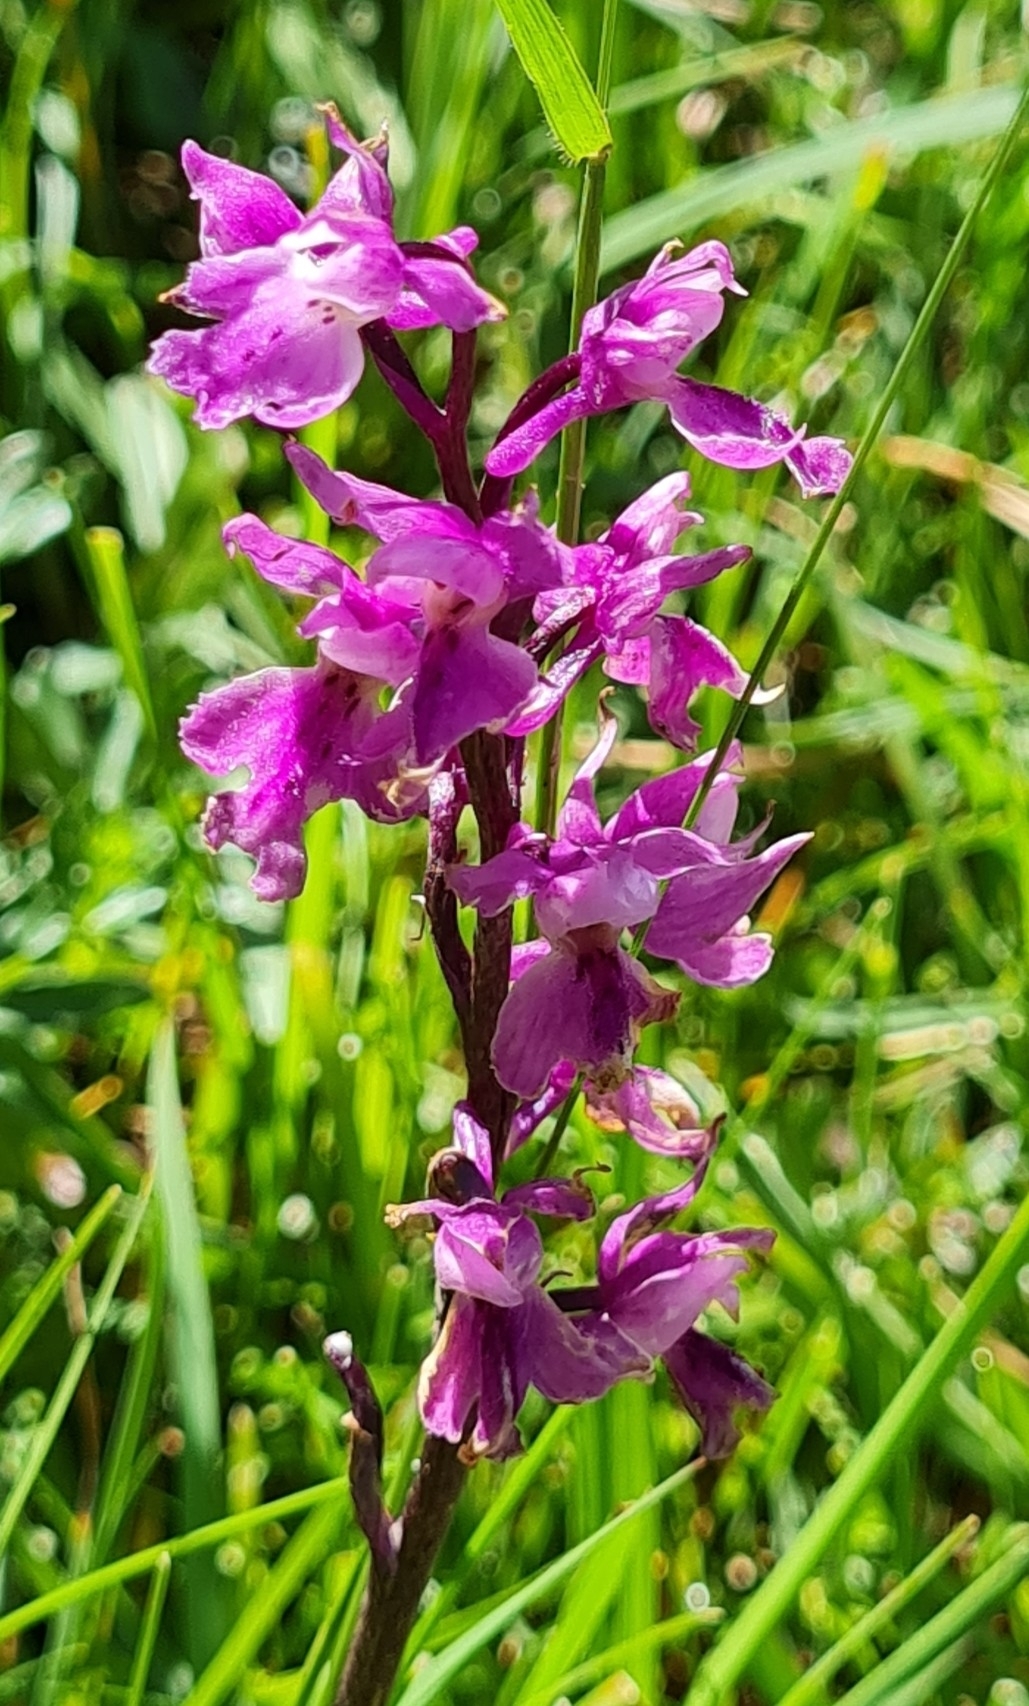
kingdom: Plantae
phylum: Tracheophyta
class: Liliopsida
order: Asparagales
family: Orchidaceae
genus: Orchis
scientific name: Orchis mascula
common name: Early-purple orchid
